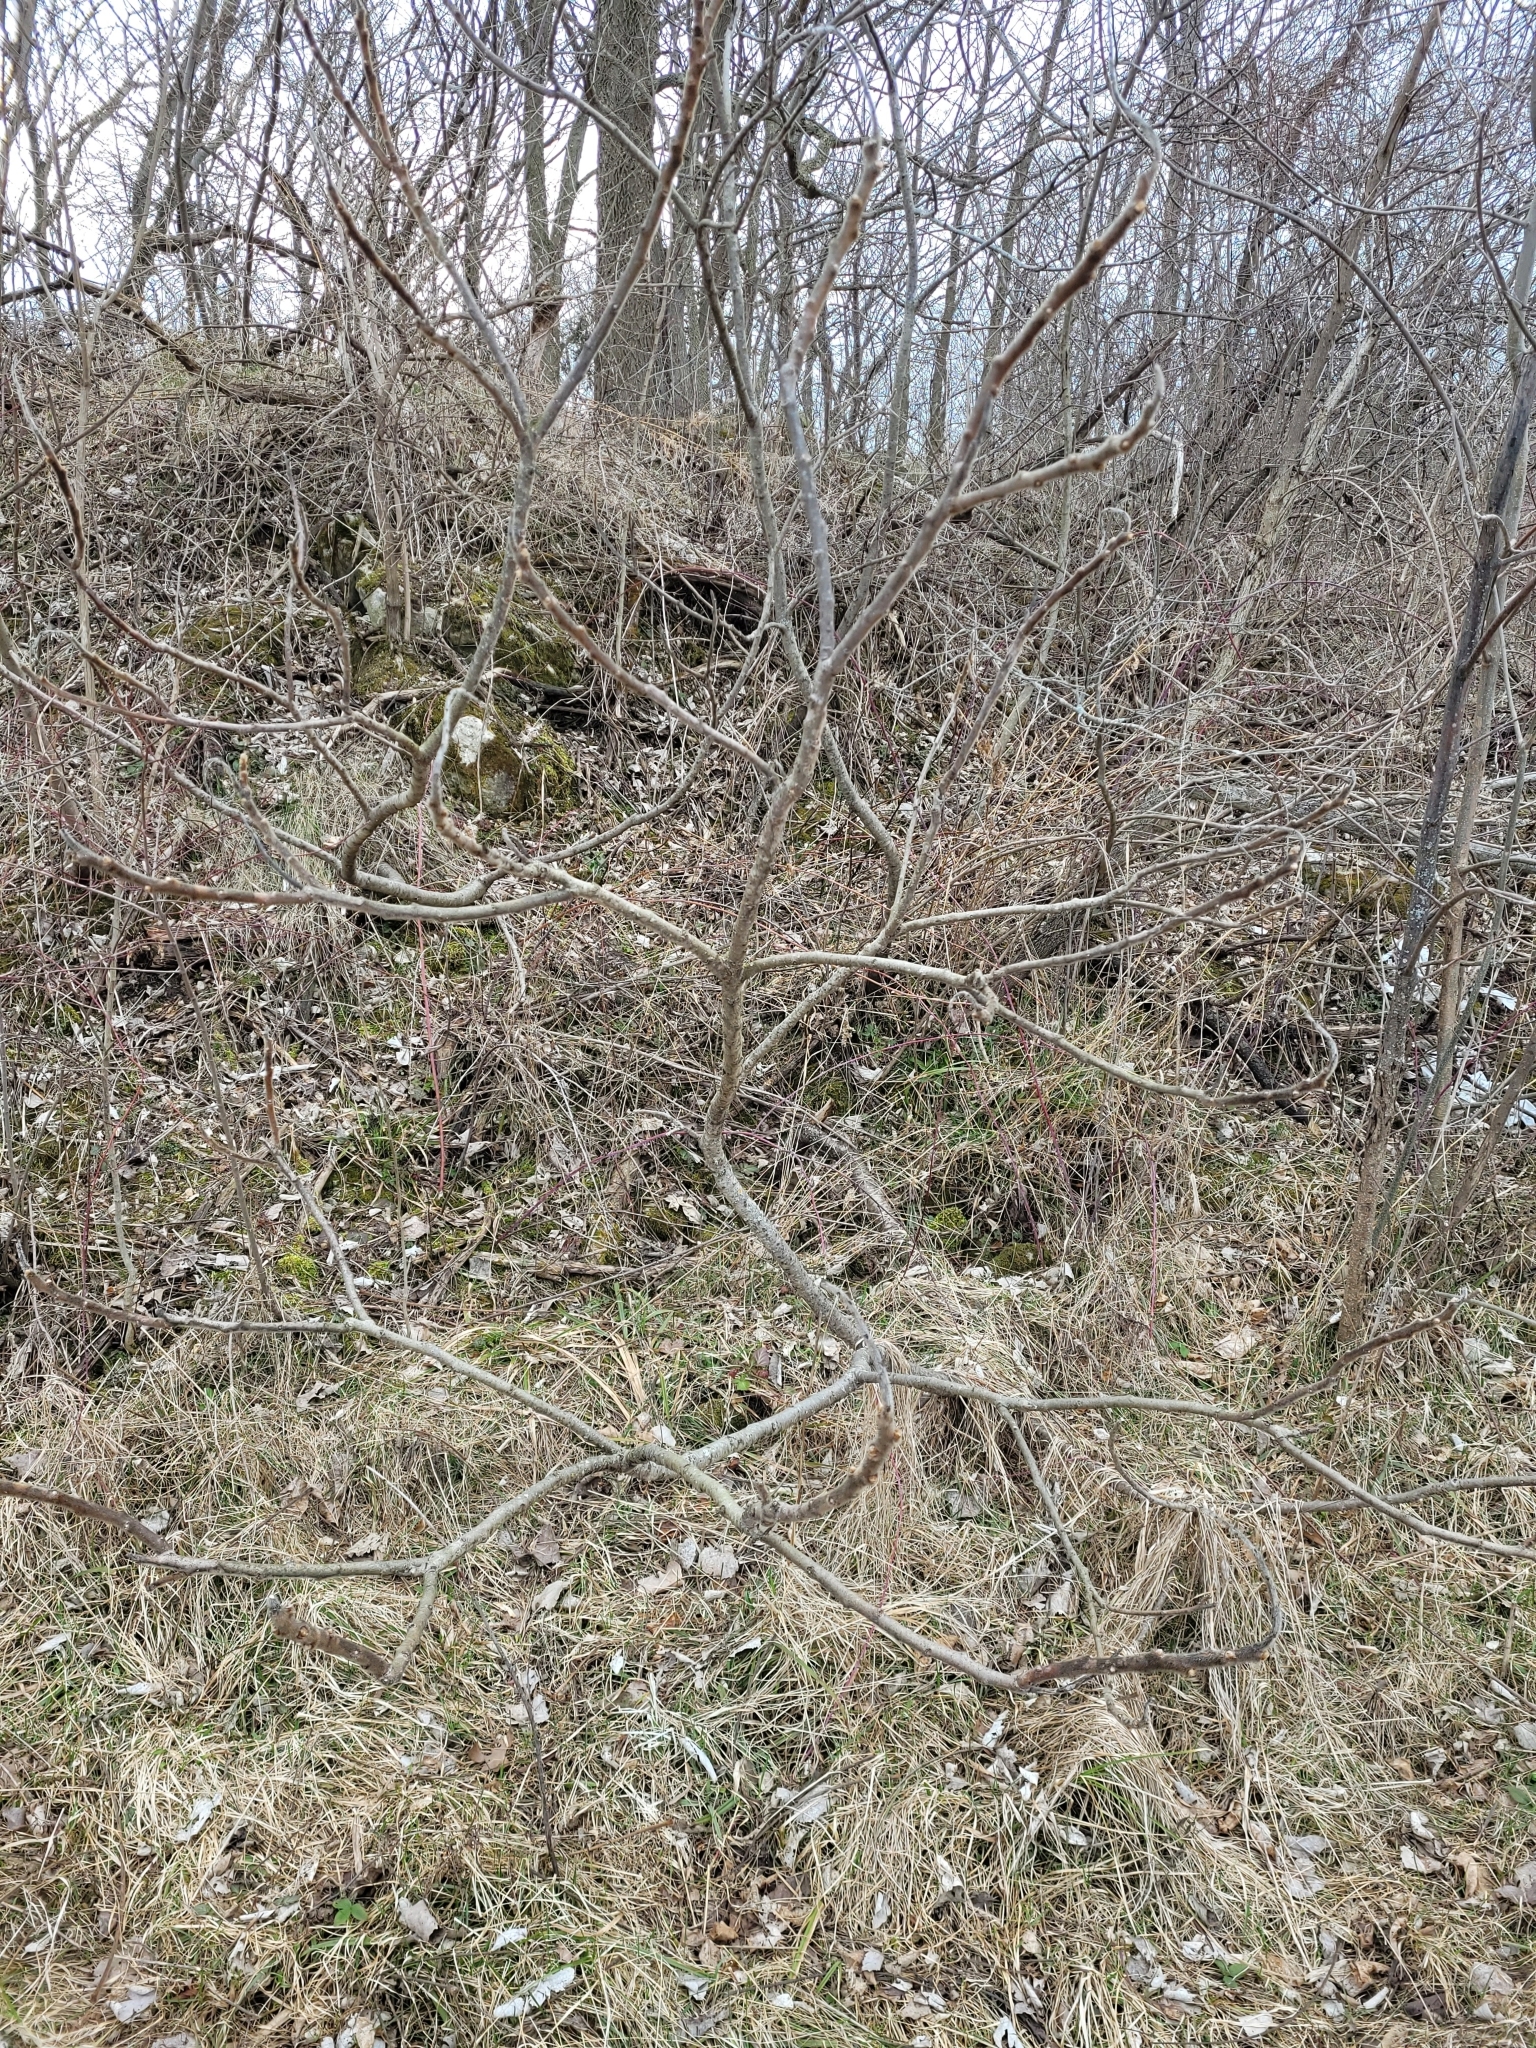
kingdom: Plantae
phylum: Tracheophyta
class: Magnoliopsida
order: Sapindales
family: Anacardiaceae
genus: Rhus
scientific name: Rhus typhina
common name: Staghorn sumac
